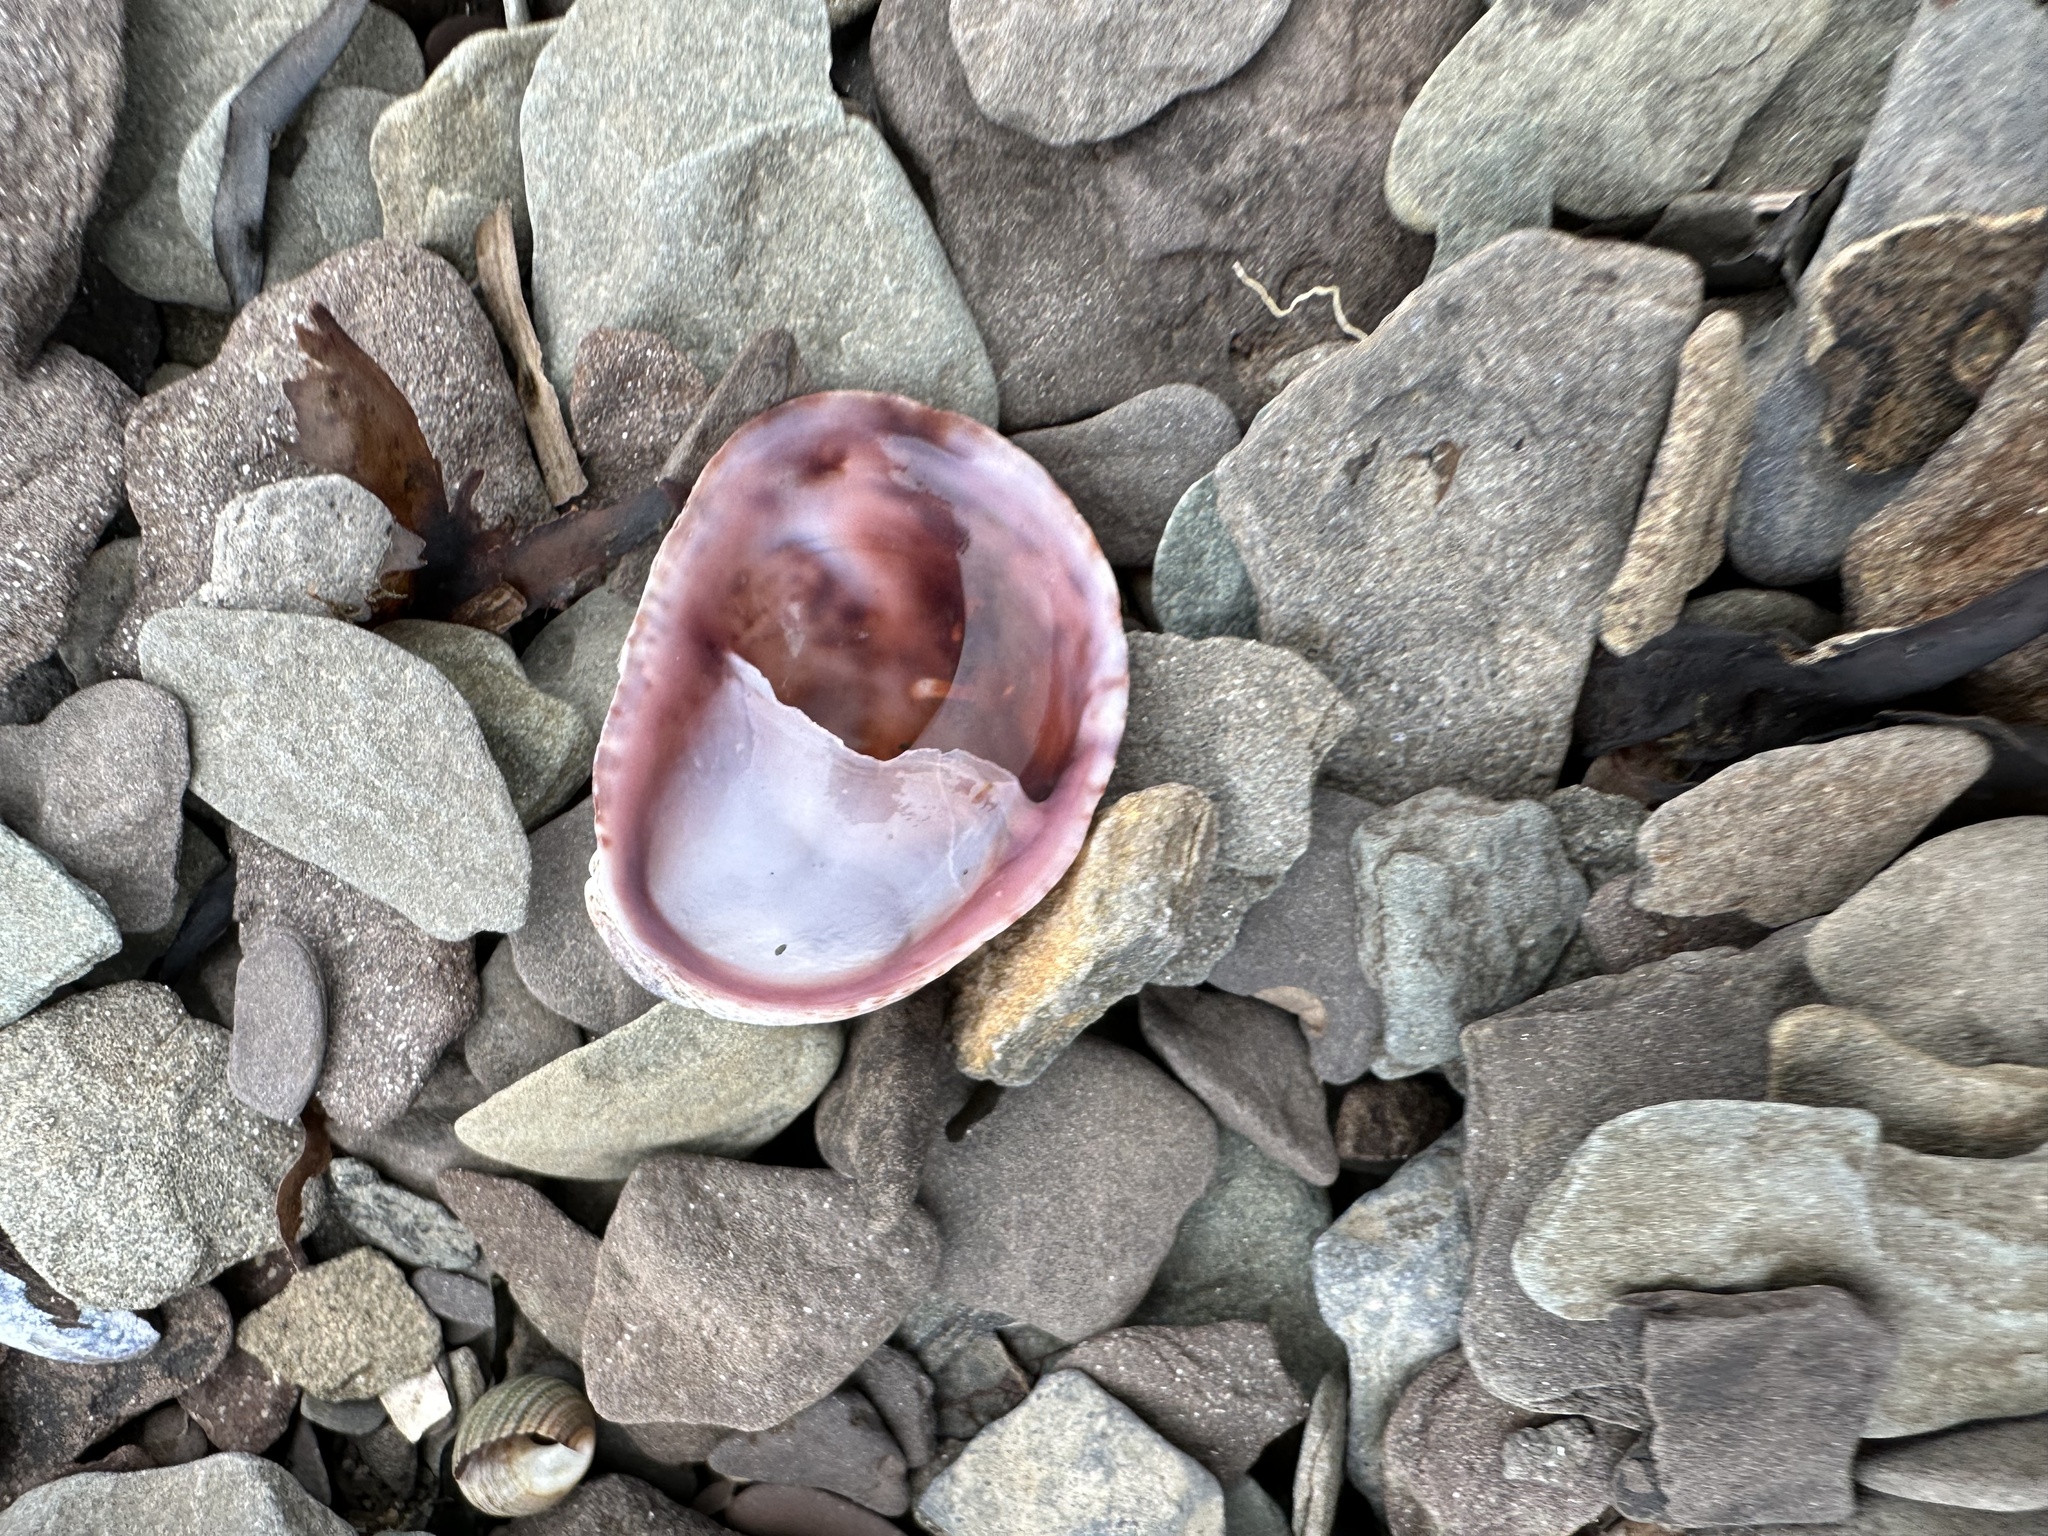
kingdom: Animalia
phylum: Mollusca
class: Gastropoda
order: Littorinimorpha
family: Calyptraeidae
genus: Crepidula
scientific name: Crepidula fornicata
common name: Slipper limpet
